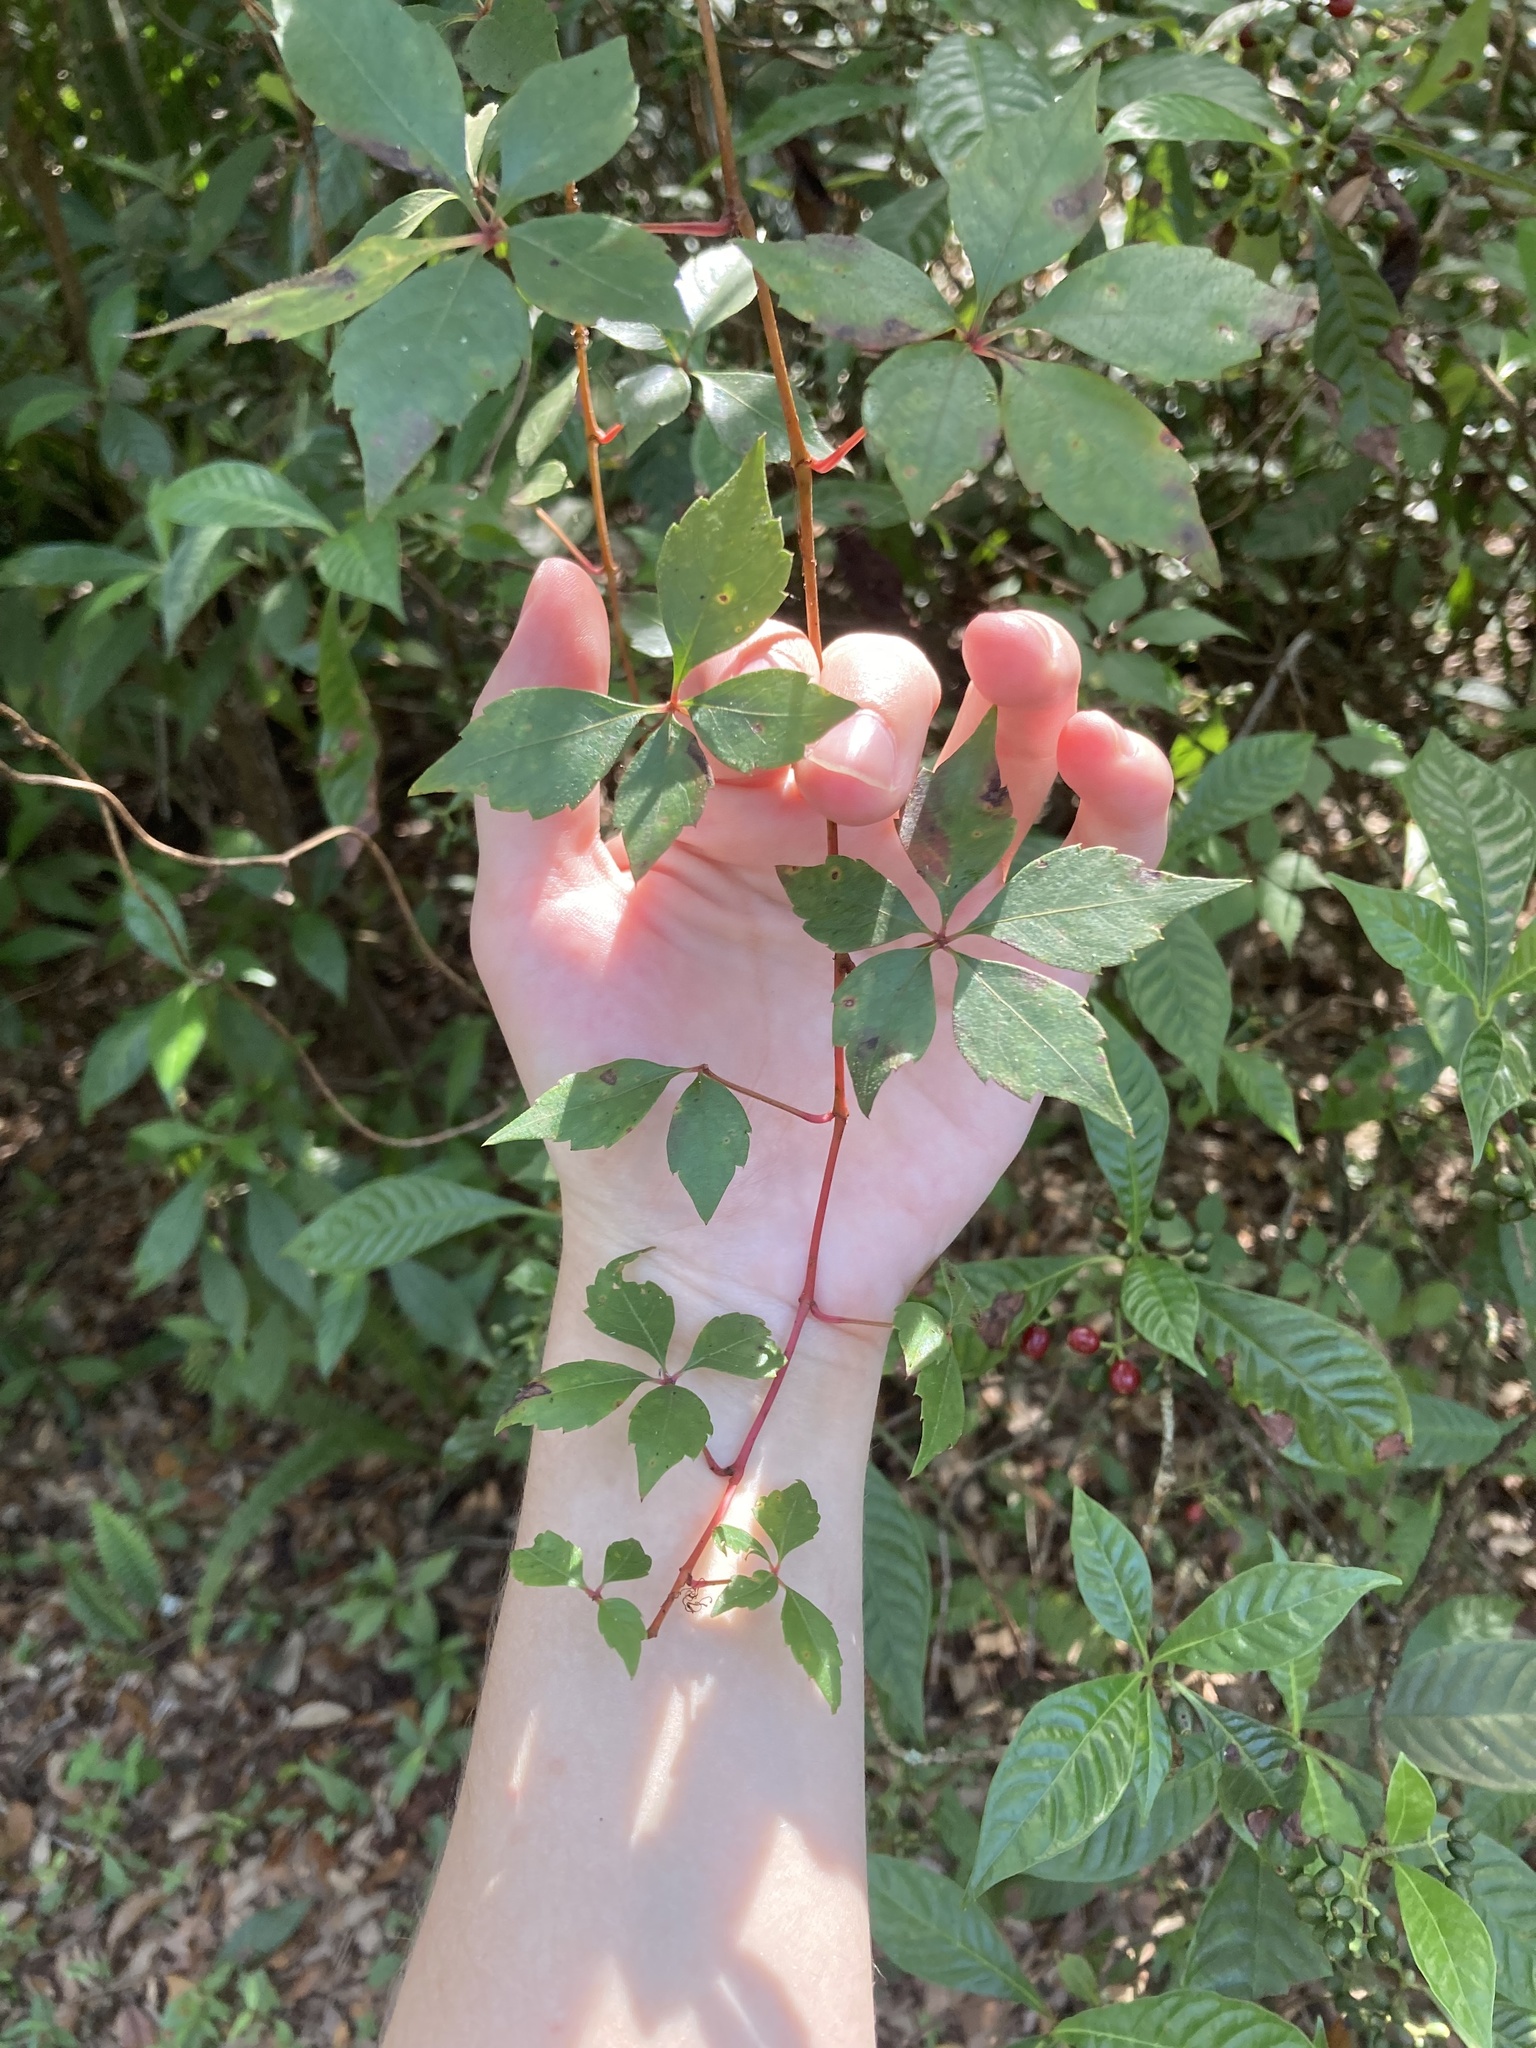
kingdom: Plantae
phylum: Tracheophyta
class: Magnoliopsida
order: Vitales
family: Vitaceae
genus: Parthenocissus
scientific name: Parthenocissus quinquefolia
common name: Virginia-creeper
